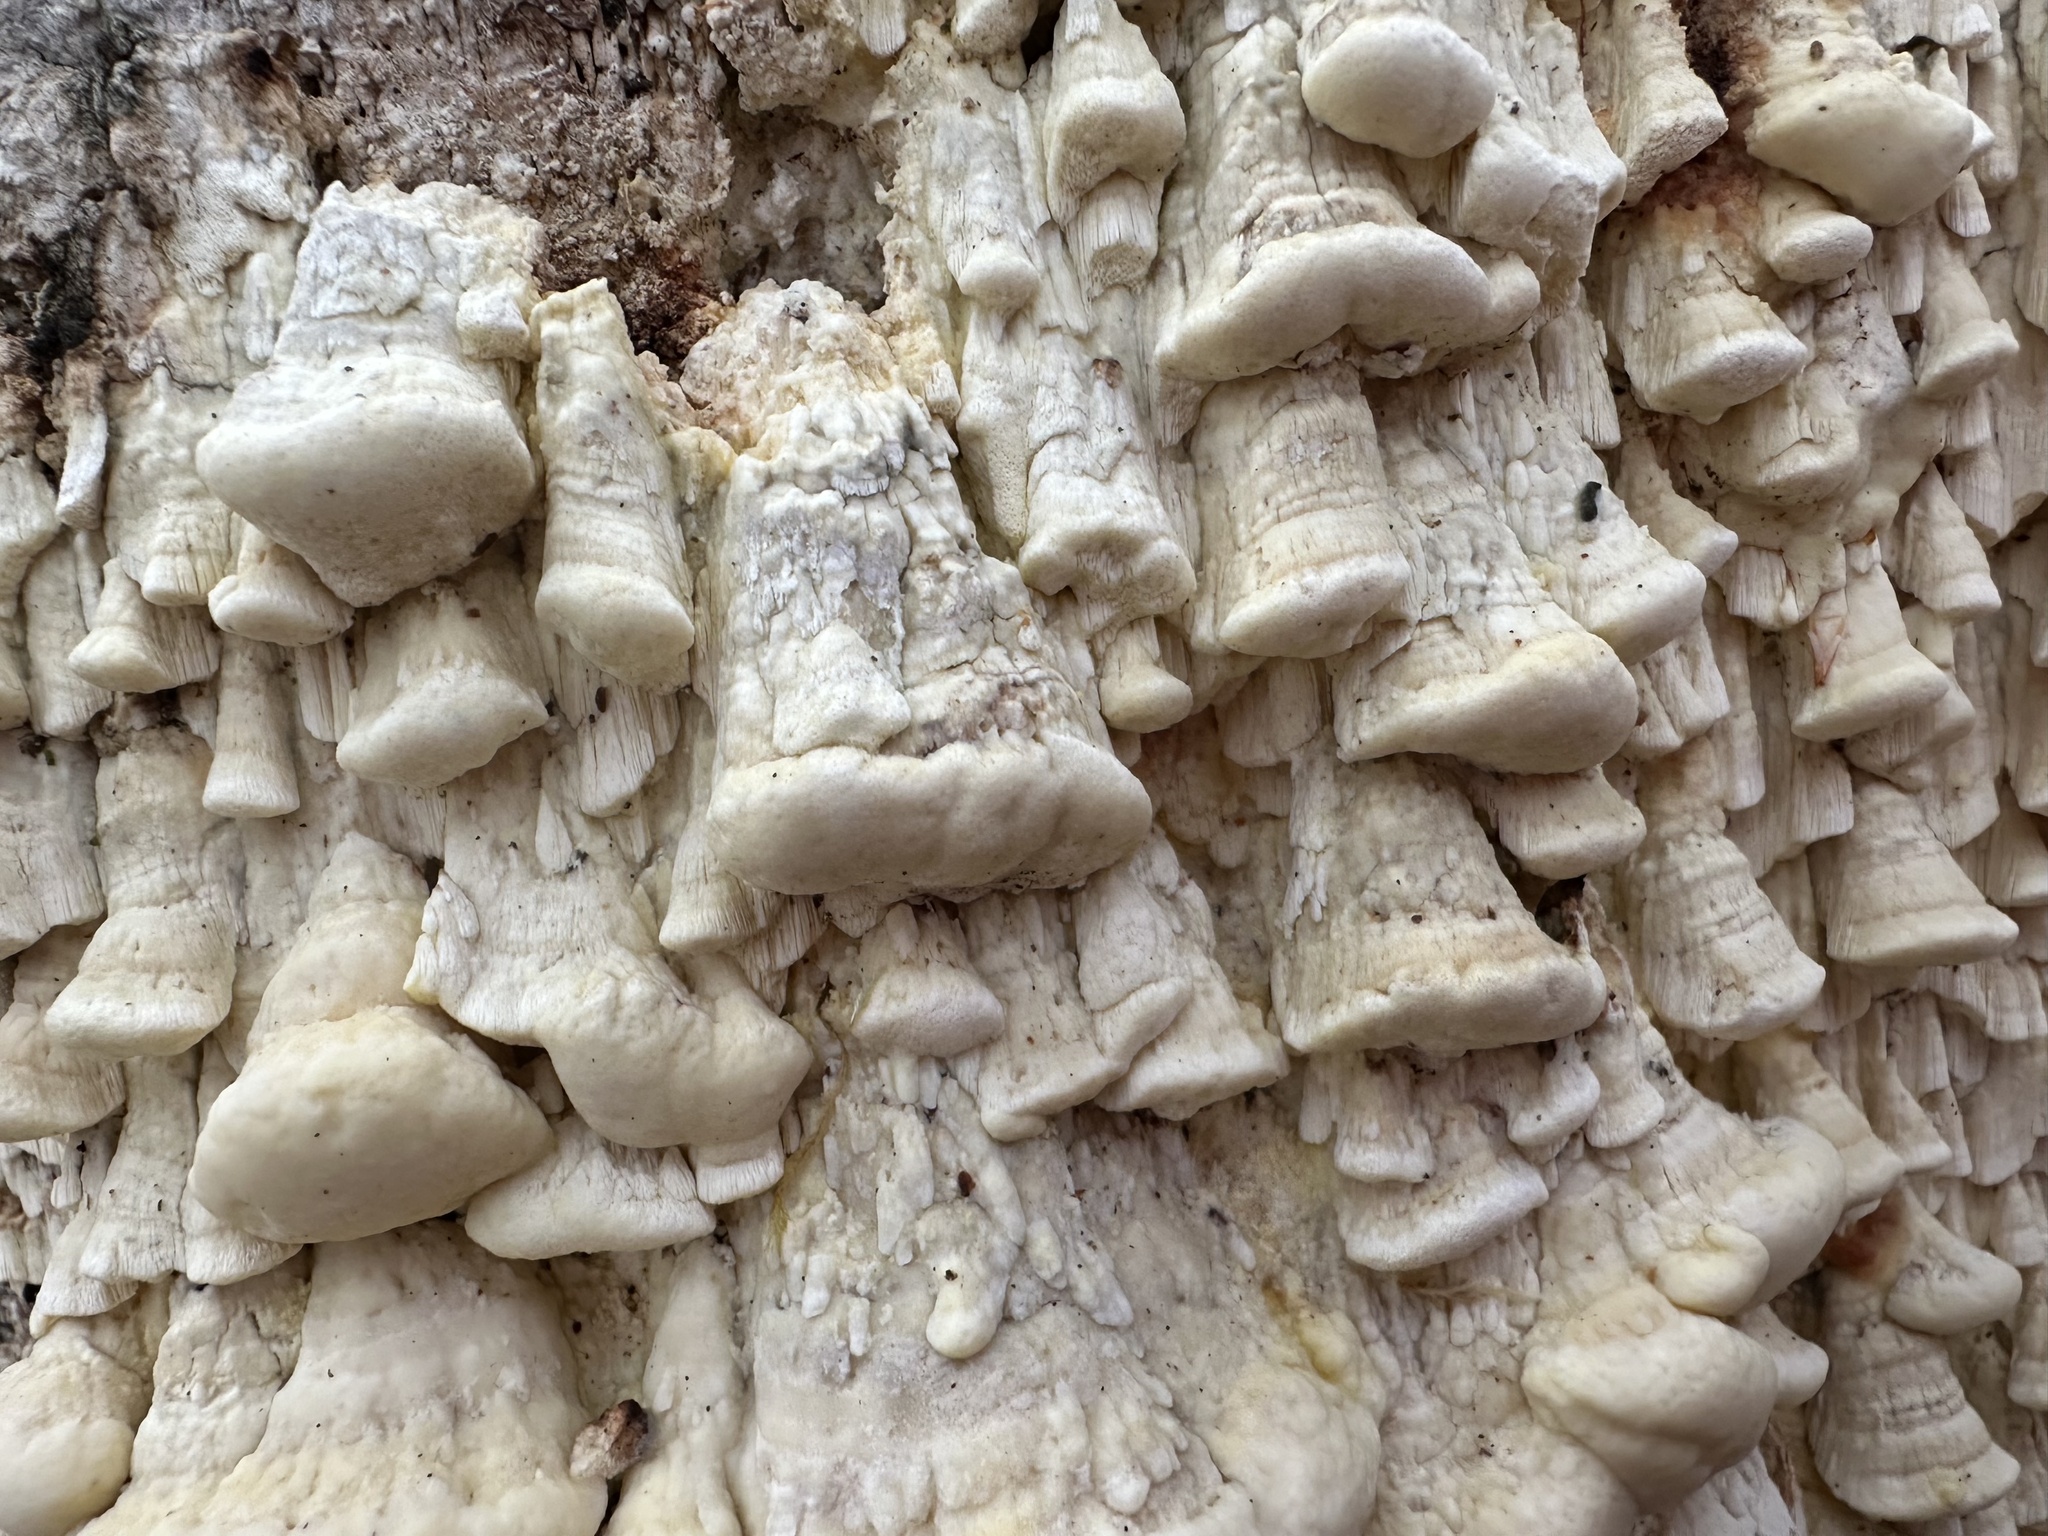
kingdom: Fungi
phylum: Basidiomycota
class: Agaricomycetes
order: Polyporales
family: Fomitopsidaceae
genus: Daedalea
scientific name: Daedalea xantha
